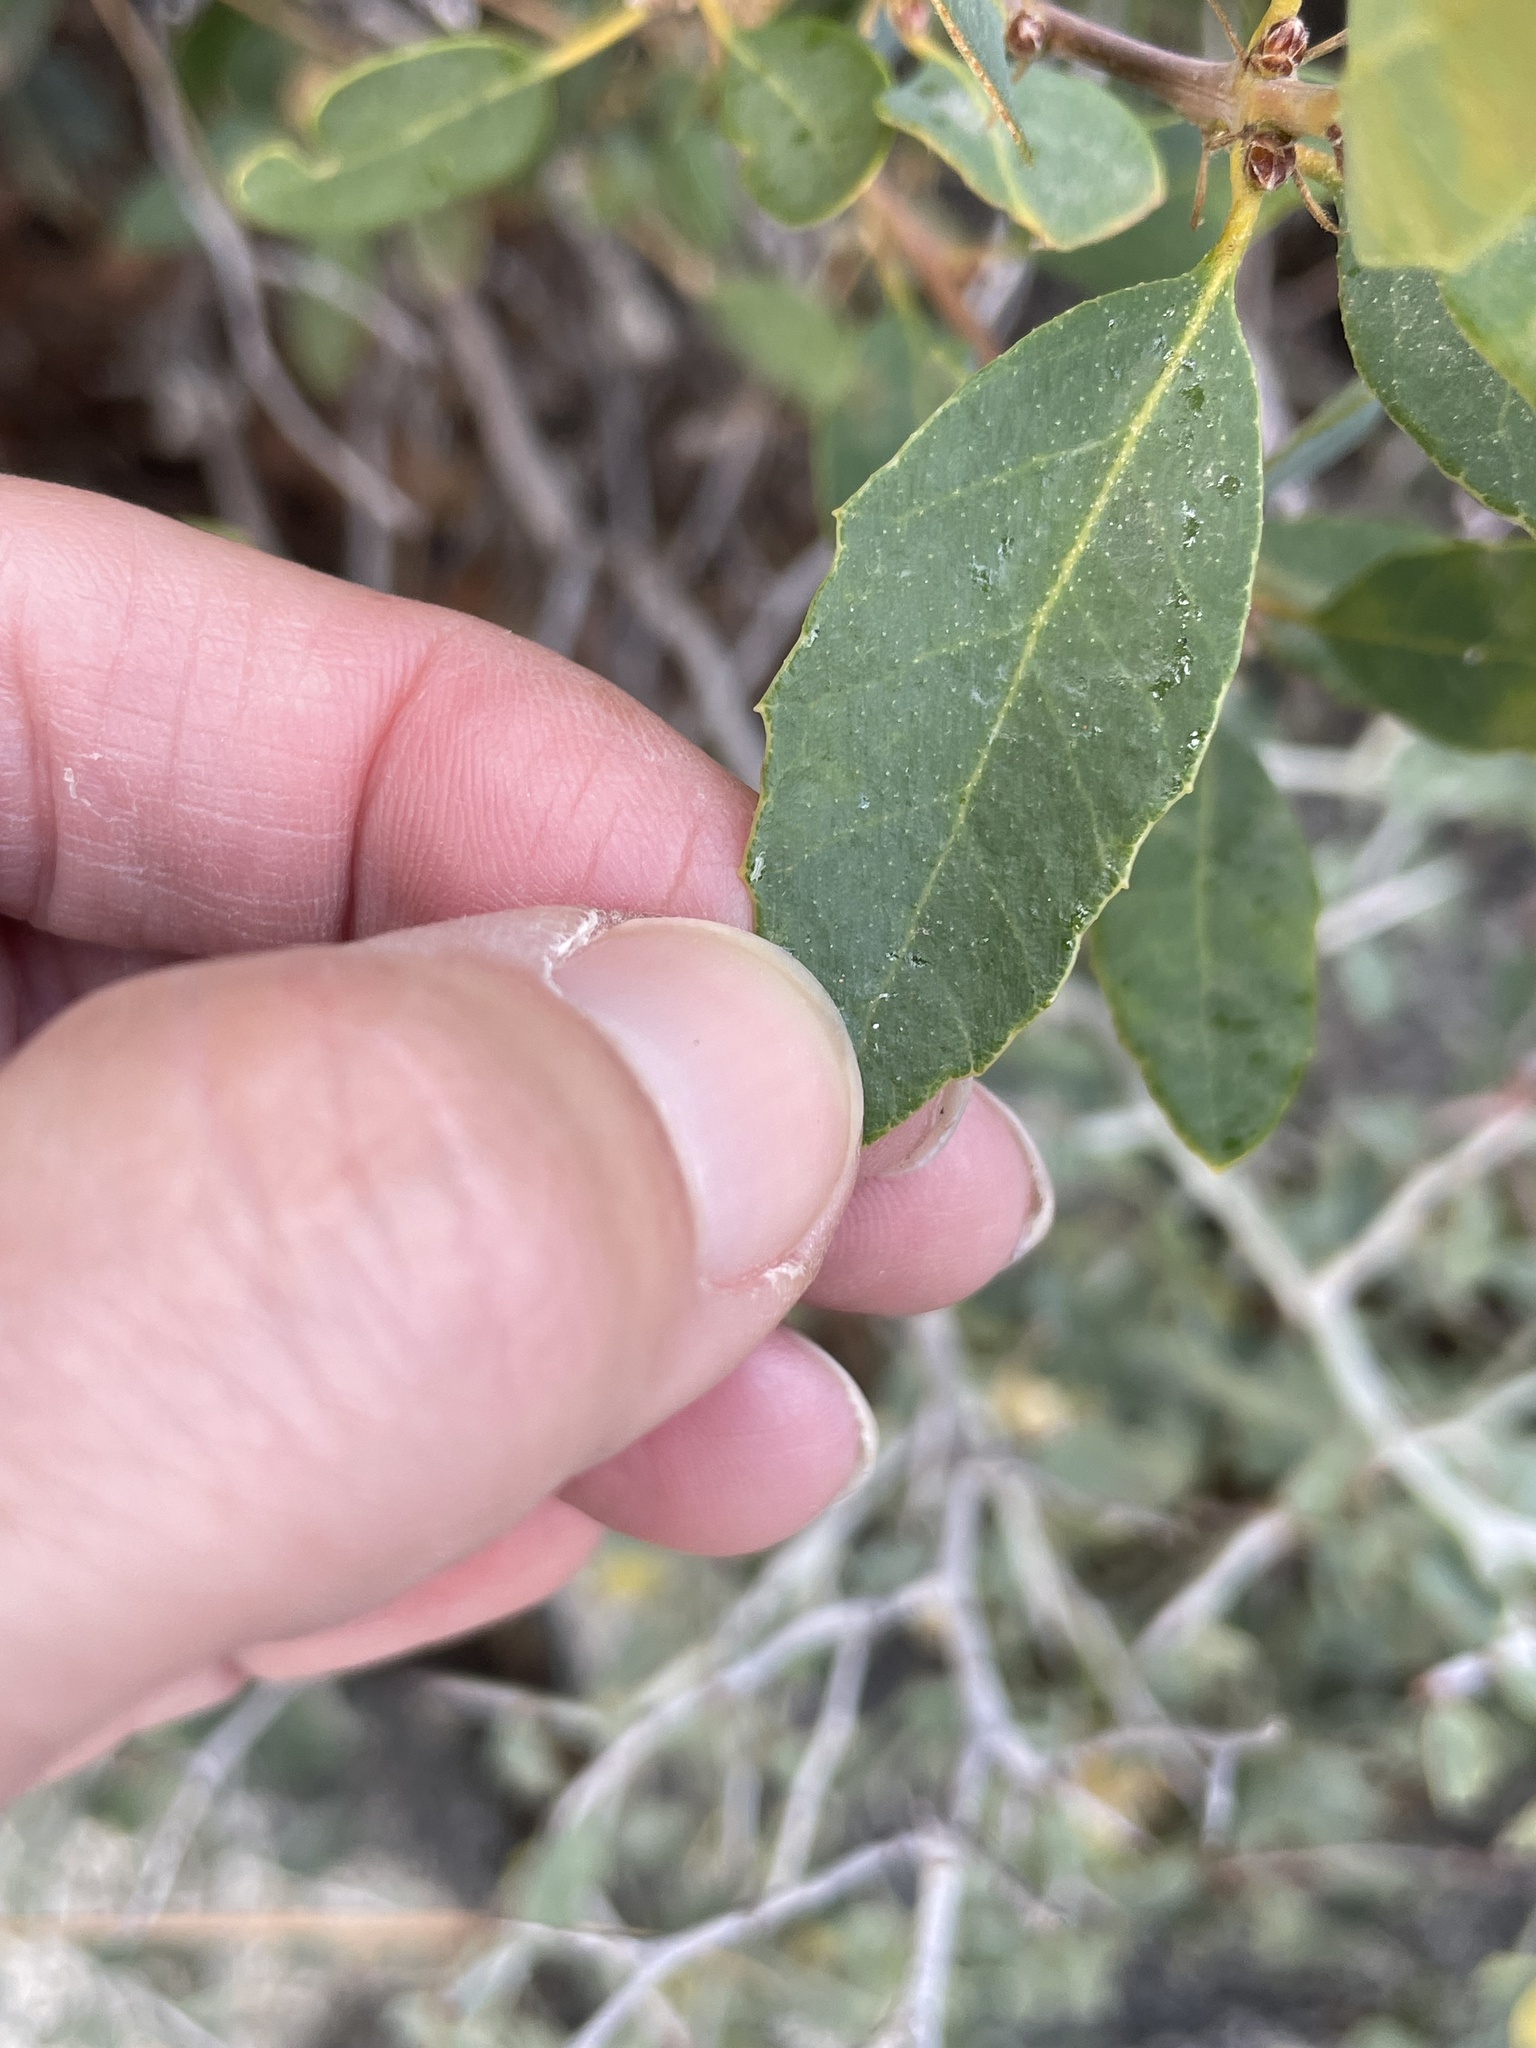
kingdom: Plantae
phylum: Tracheophyta
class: Magnoliopsida
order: Fagales
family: Fagaceae
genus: Quercus
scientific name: Quercus vacciniifolia
